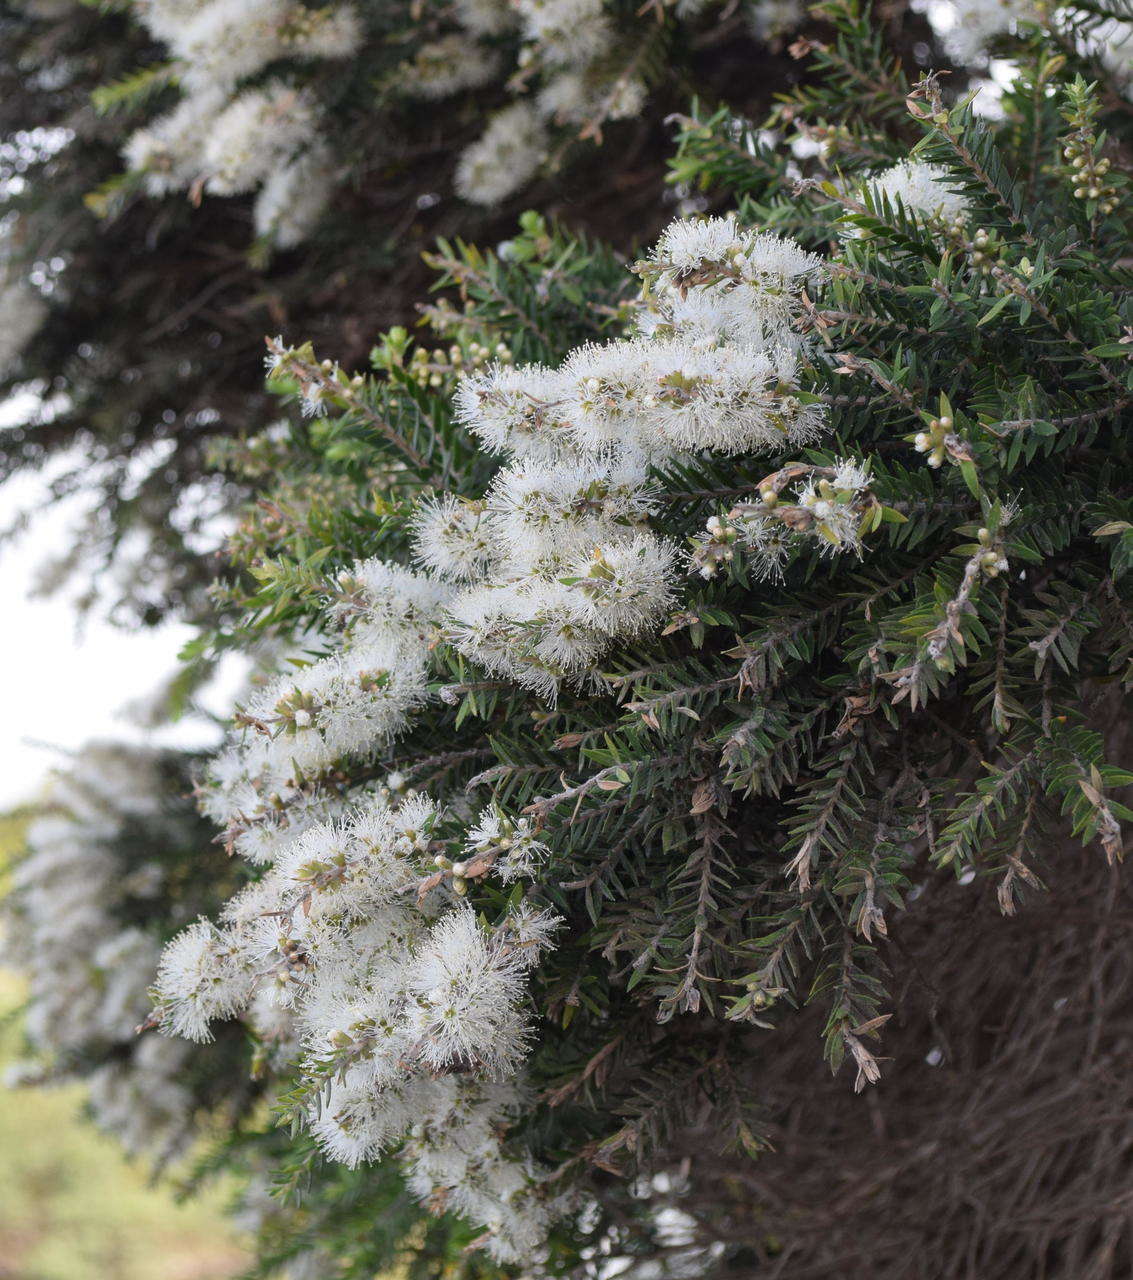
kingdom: Plantae
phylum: Tracheophyta
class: Magnoliopsida
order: Myrtales
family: Myrtaceae
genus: Melaleuca
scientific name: Melaleuca lanceolata
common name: Rottnest island teatree
